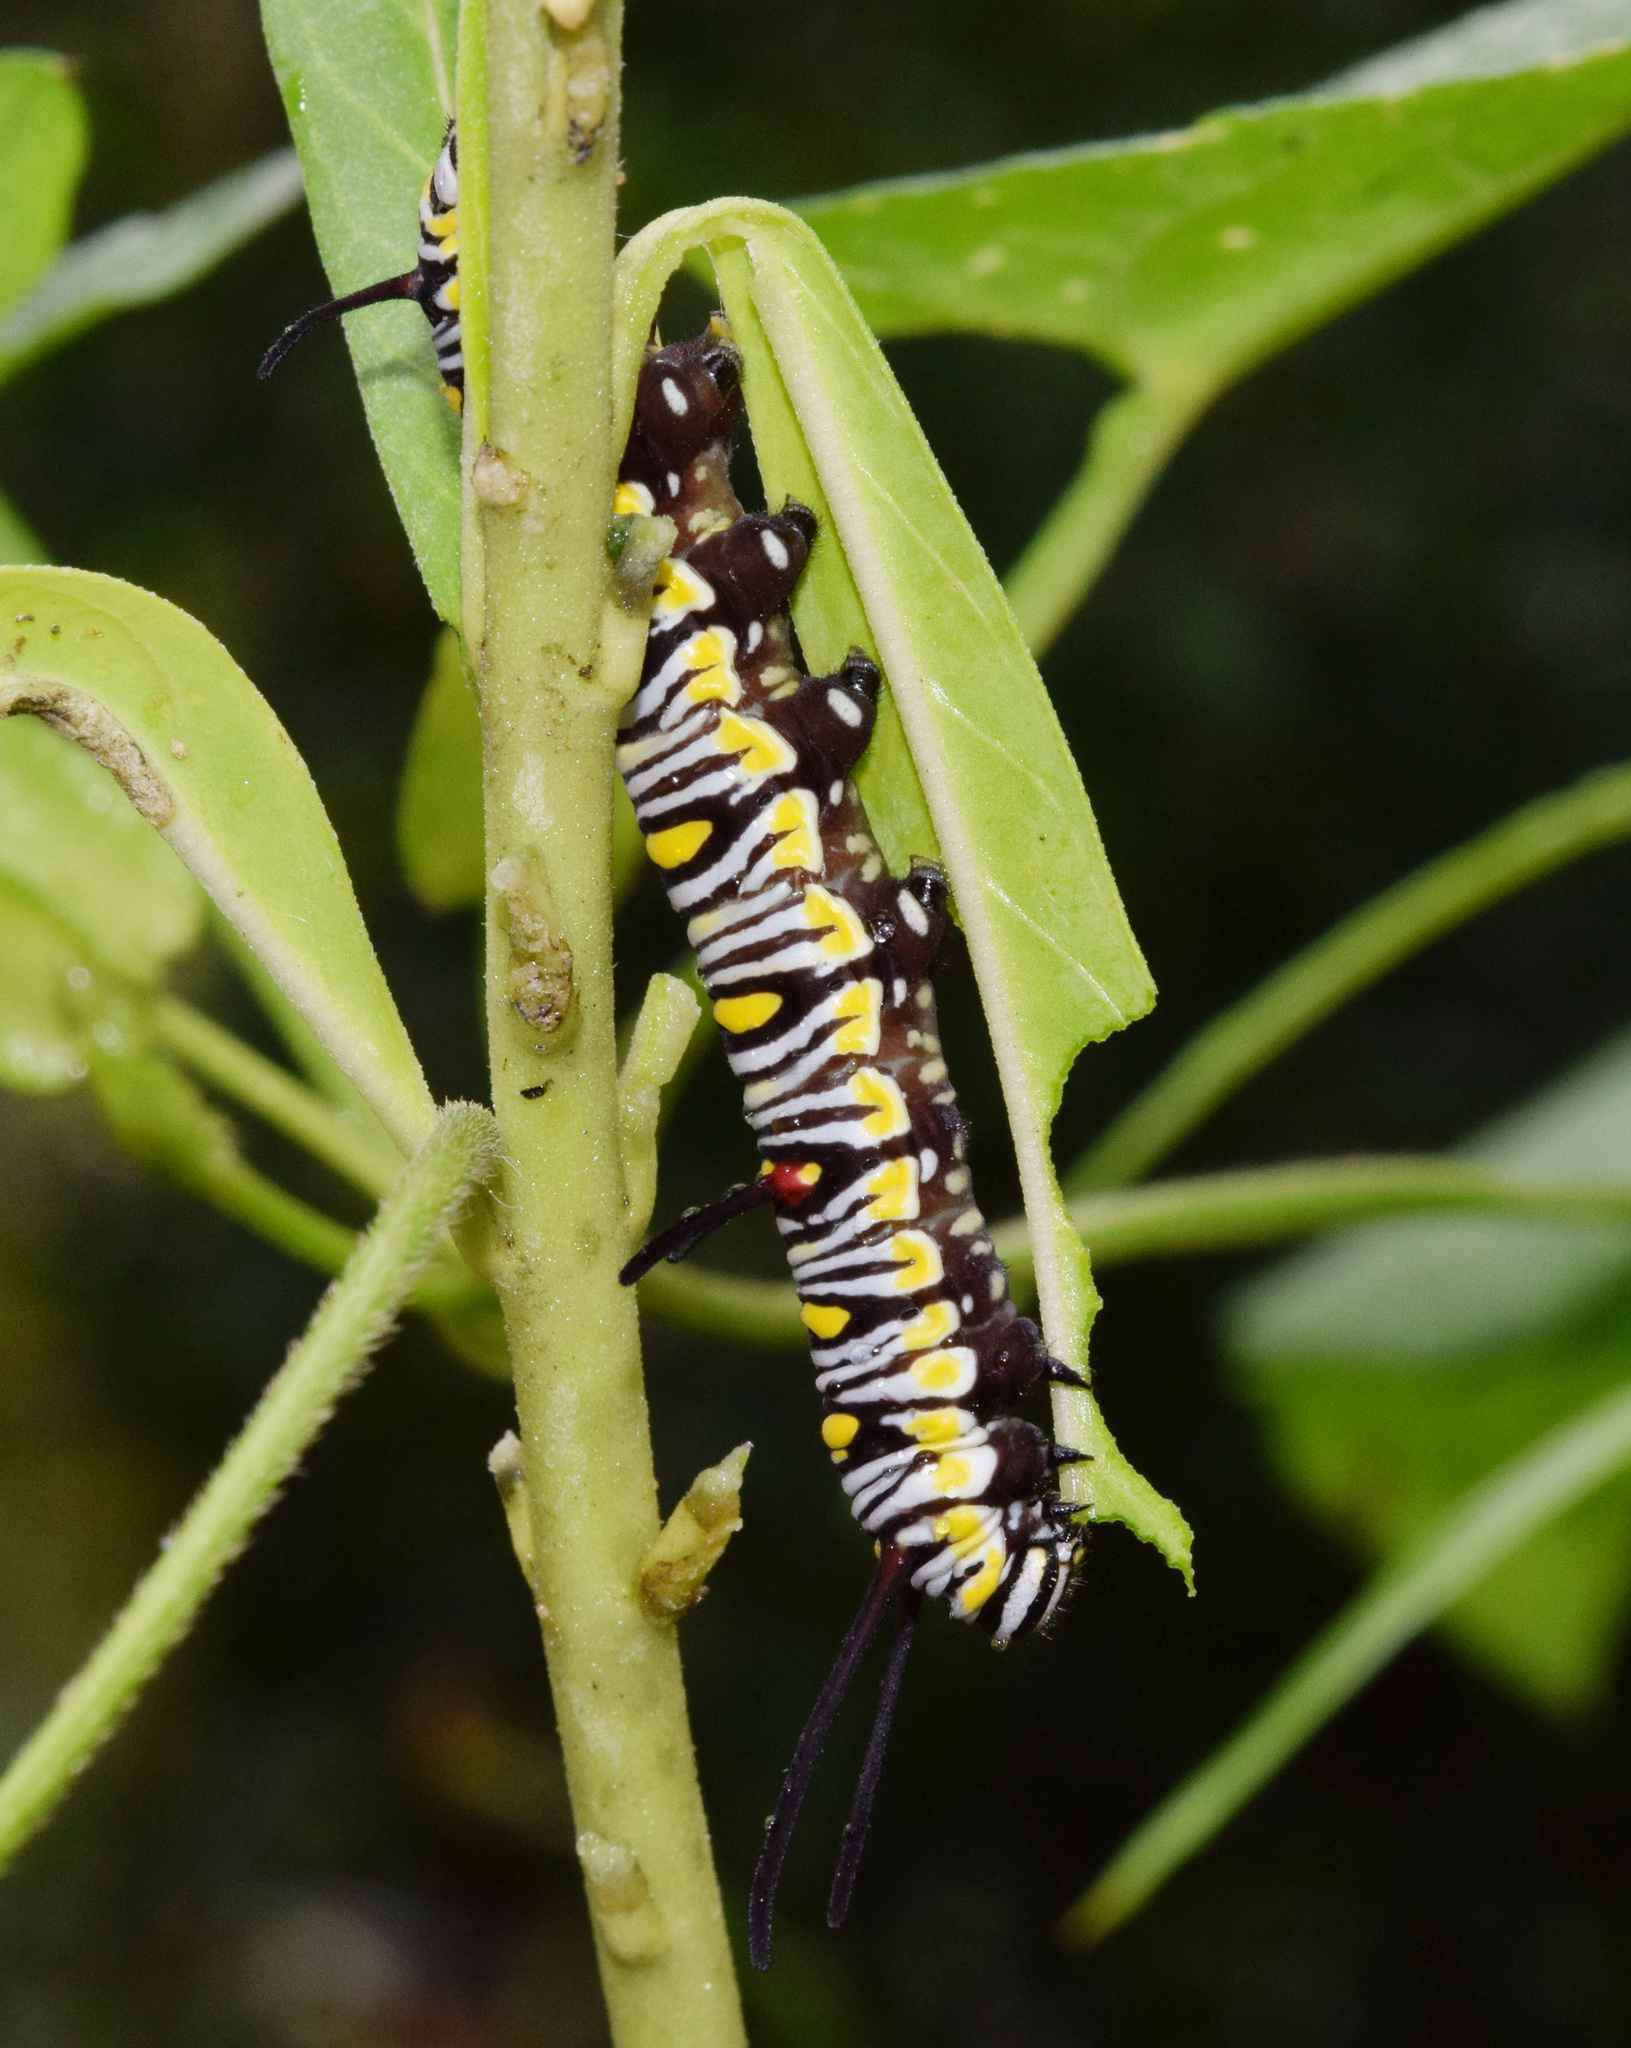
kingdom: Animalia
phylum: Arthropoda
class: Insecta
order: Lepidoptera
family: Nymphalidae
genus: Danaus
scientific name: Danaus chrysippus
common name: Plain tiger
